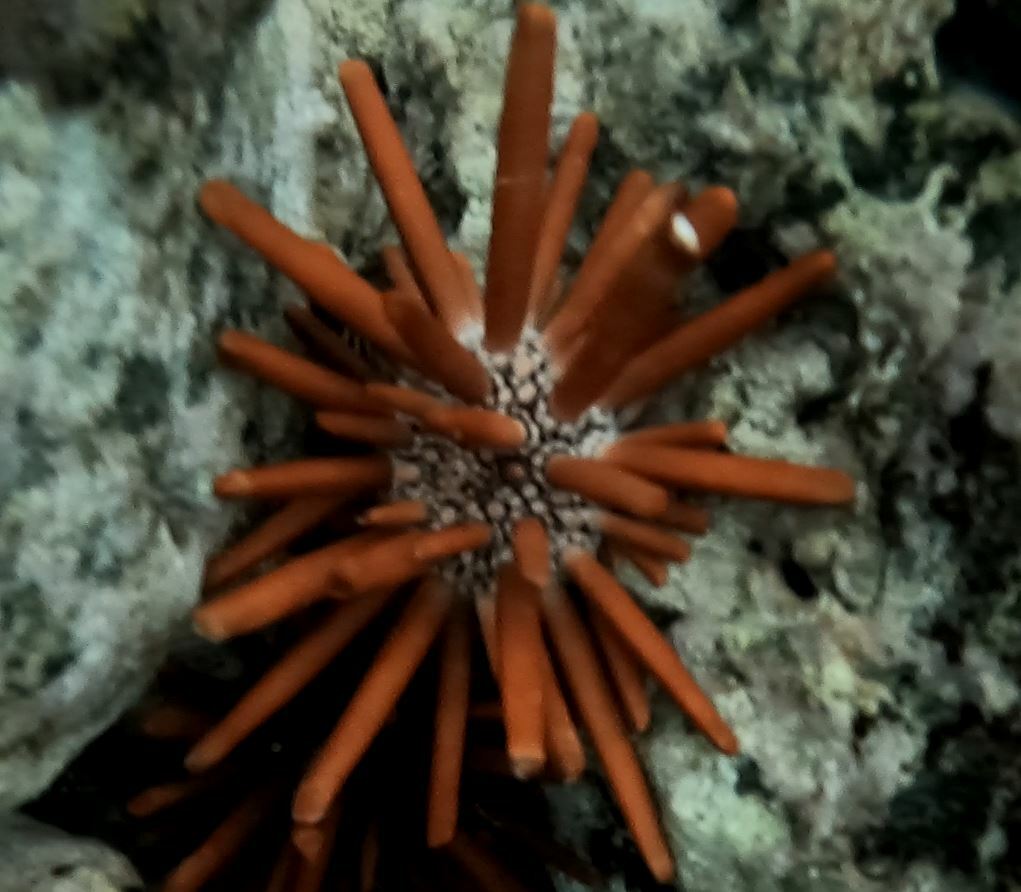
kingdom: Animalia
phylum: Echinodermata
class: Echinoidea
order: Camarodonta
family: Echinometridae
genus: Heterocentrotus
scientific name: Heterocentrotus mamillatus
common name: Slate pencil urchin
